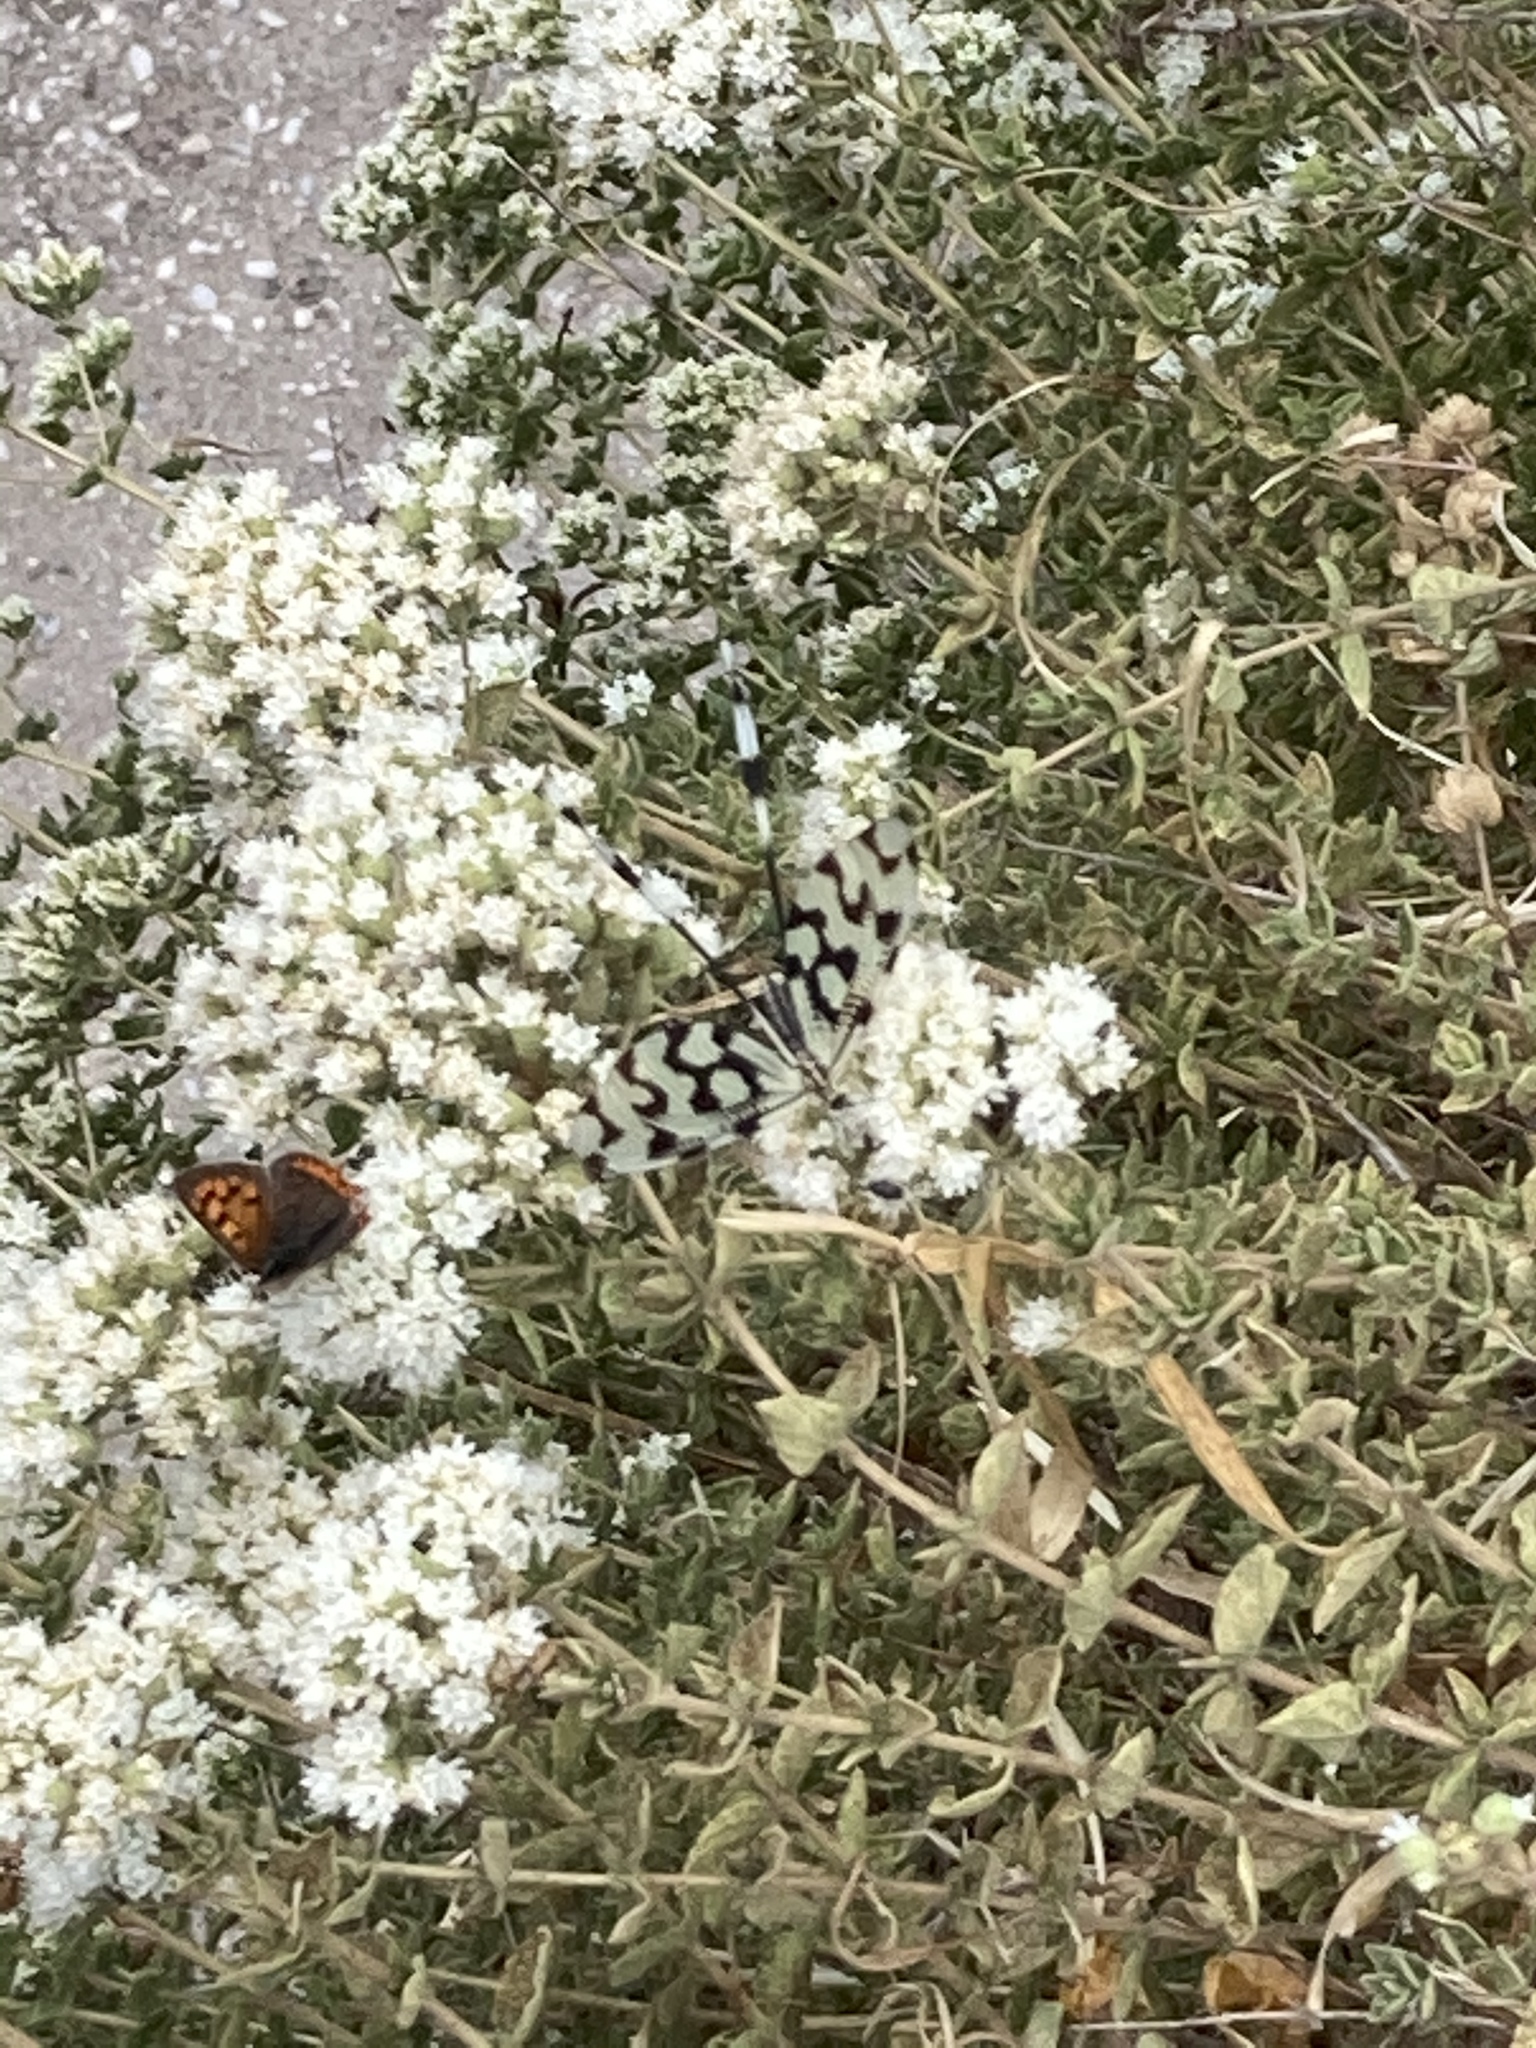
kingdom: Animalia
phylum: Arthropoda
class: Insecta
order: Lepidoptera
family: Lycaenidae
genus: Lycaena
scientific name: Lycaena phlaeas
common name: Small copper
